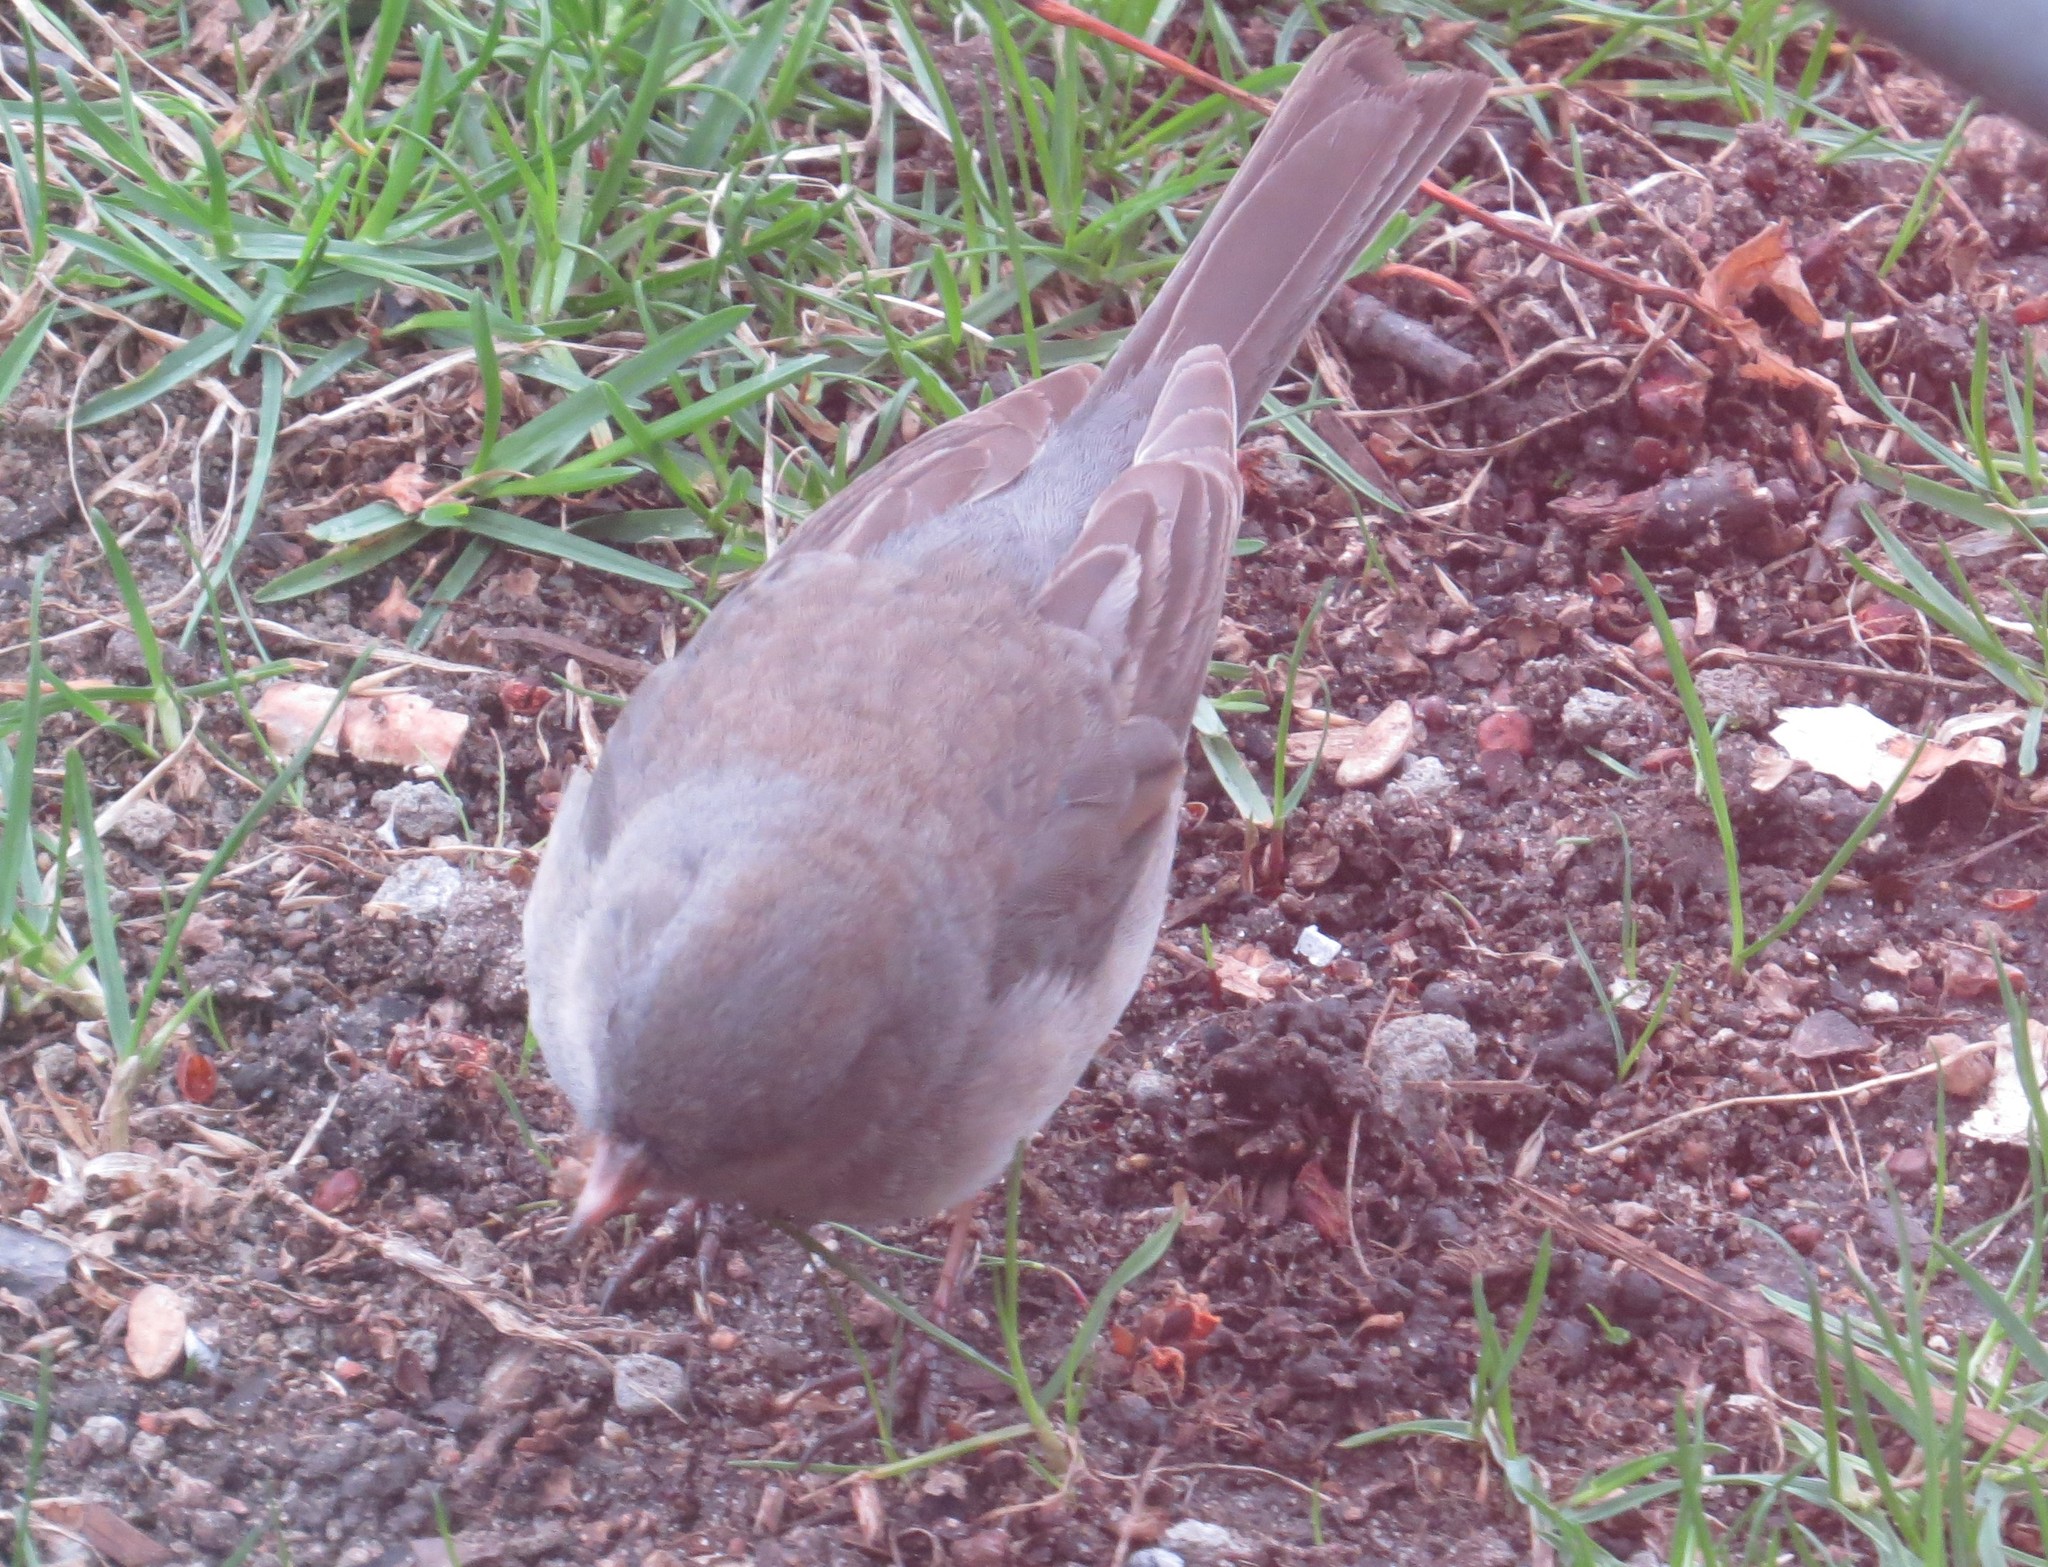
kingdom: Animalia
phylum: Chordata
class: Aves
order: Passeriformes
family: Passerellidae
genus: Junco
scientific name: Junco hyemalis
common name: Dark-eyed junco
